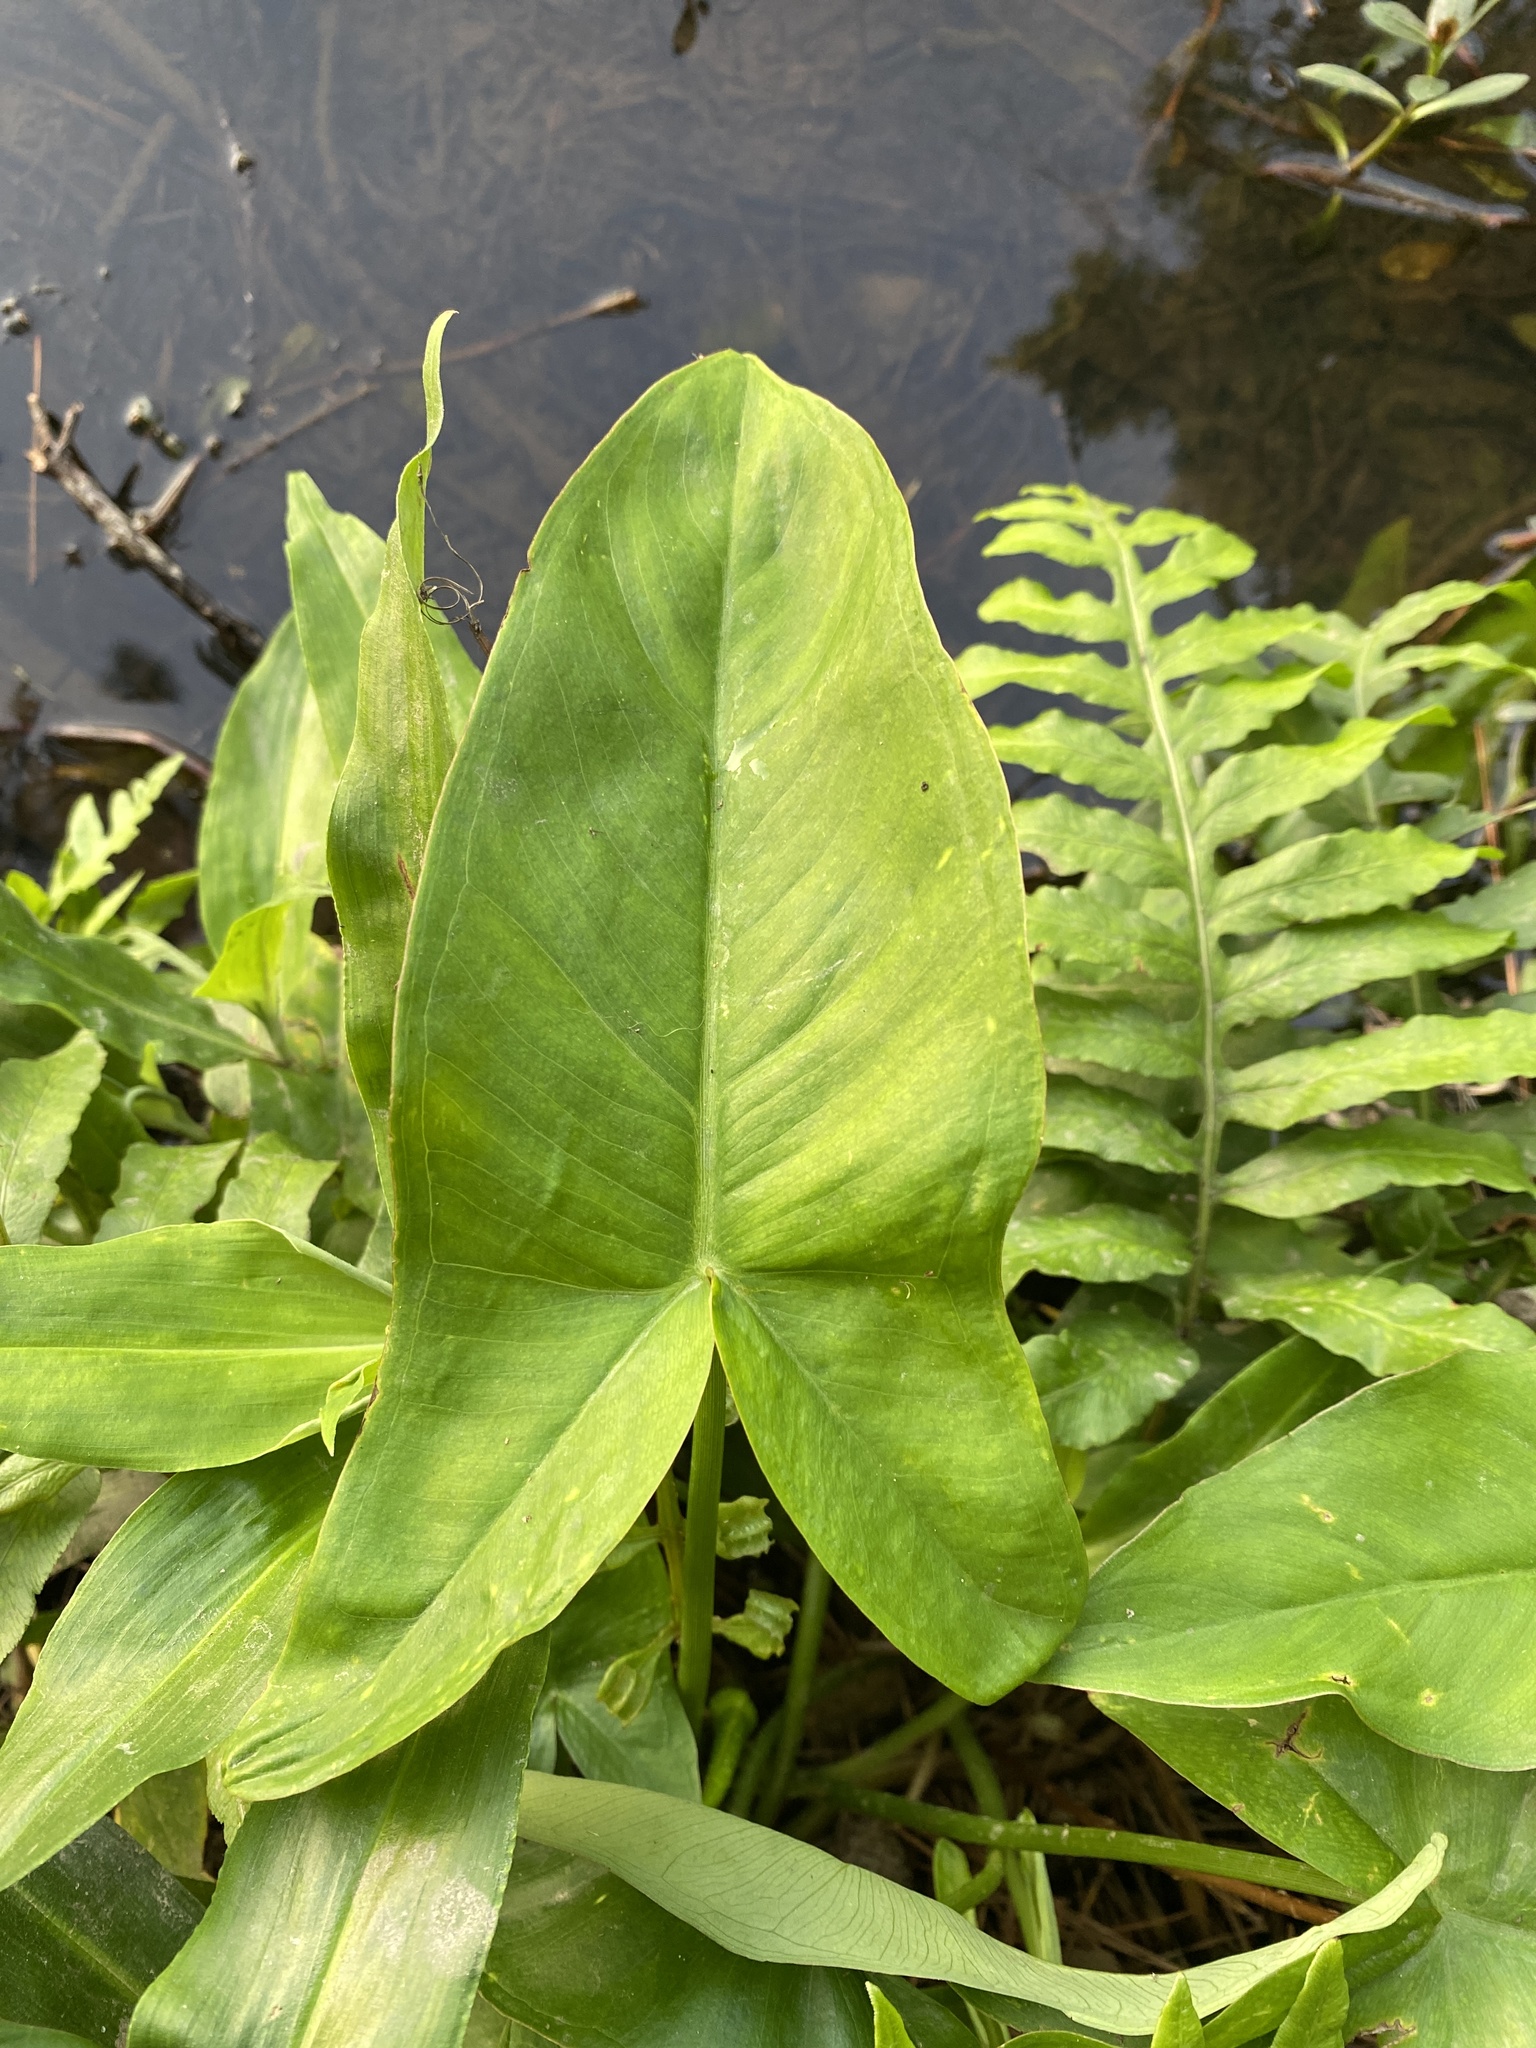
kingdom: Plantae
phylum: Tracheophyta
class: Liliopsida
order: Alismatales
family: Araceae
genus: Peltandra
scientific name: Peltandra virginica
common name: Arrow arum
